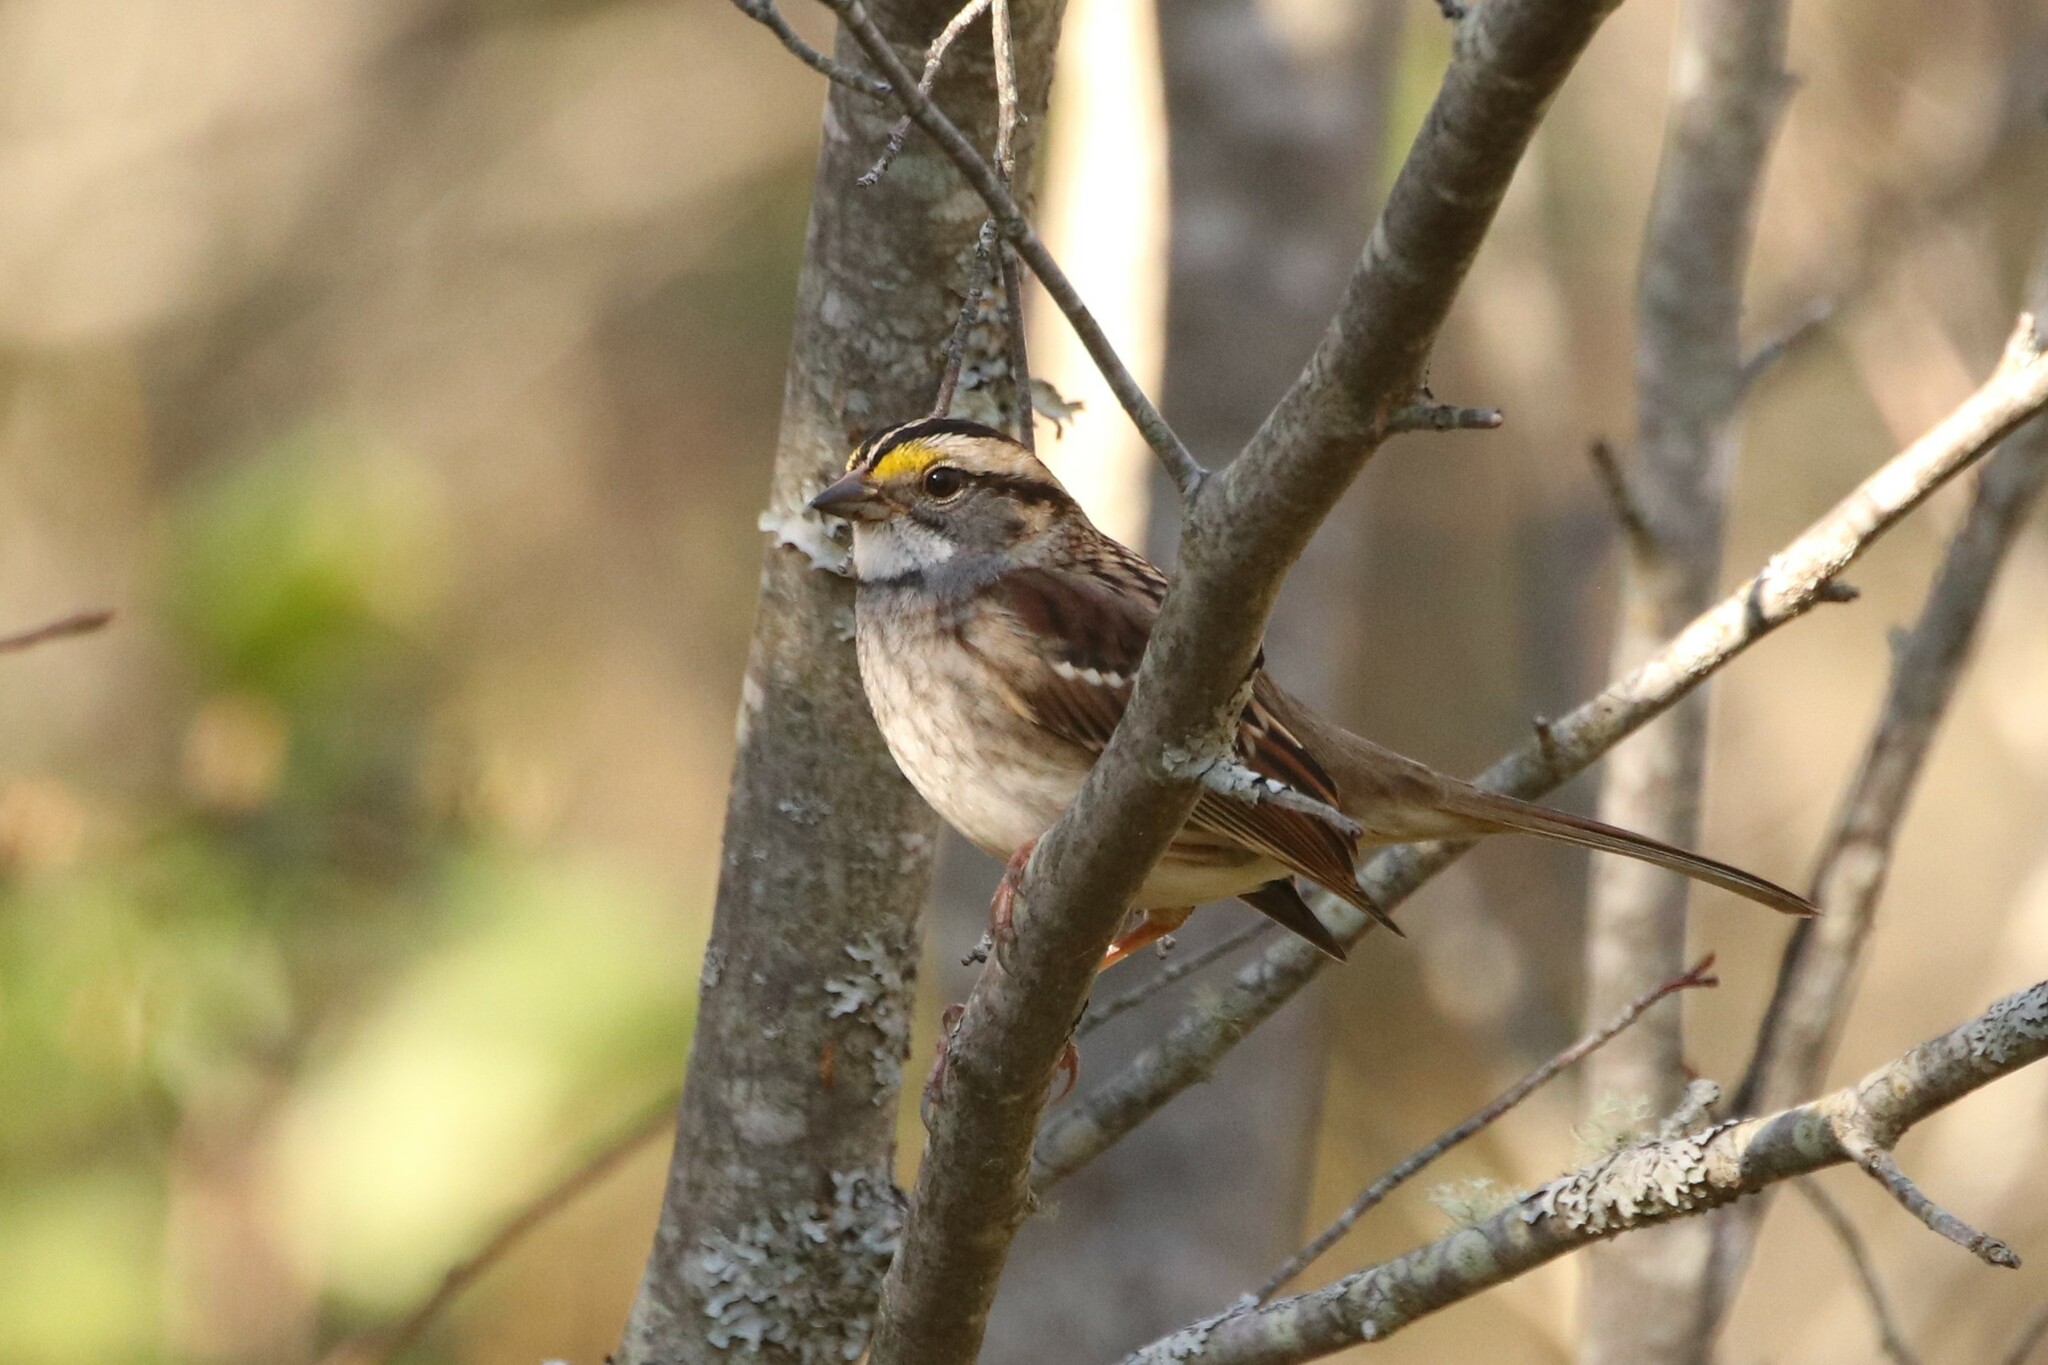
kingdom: Animalia
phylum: Chordata
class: Aves
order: Passeriformes
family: Passerellidae
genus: Zonotrichia
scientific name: Zonotrichia albicollis
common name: White-throated sparrow
